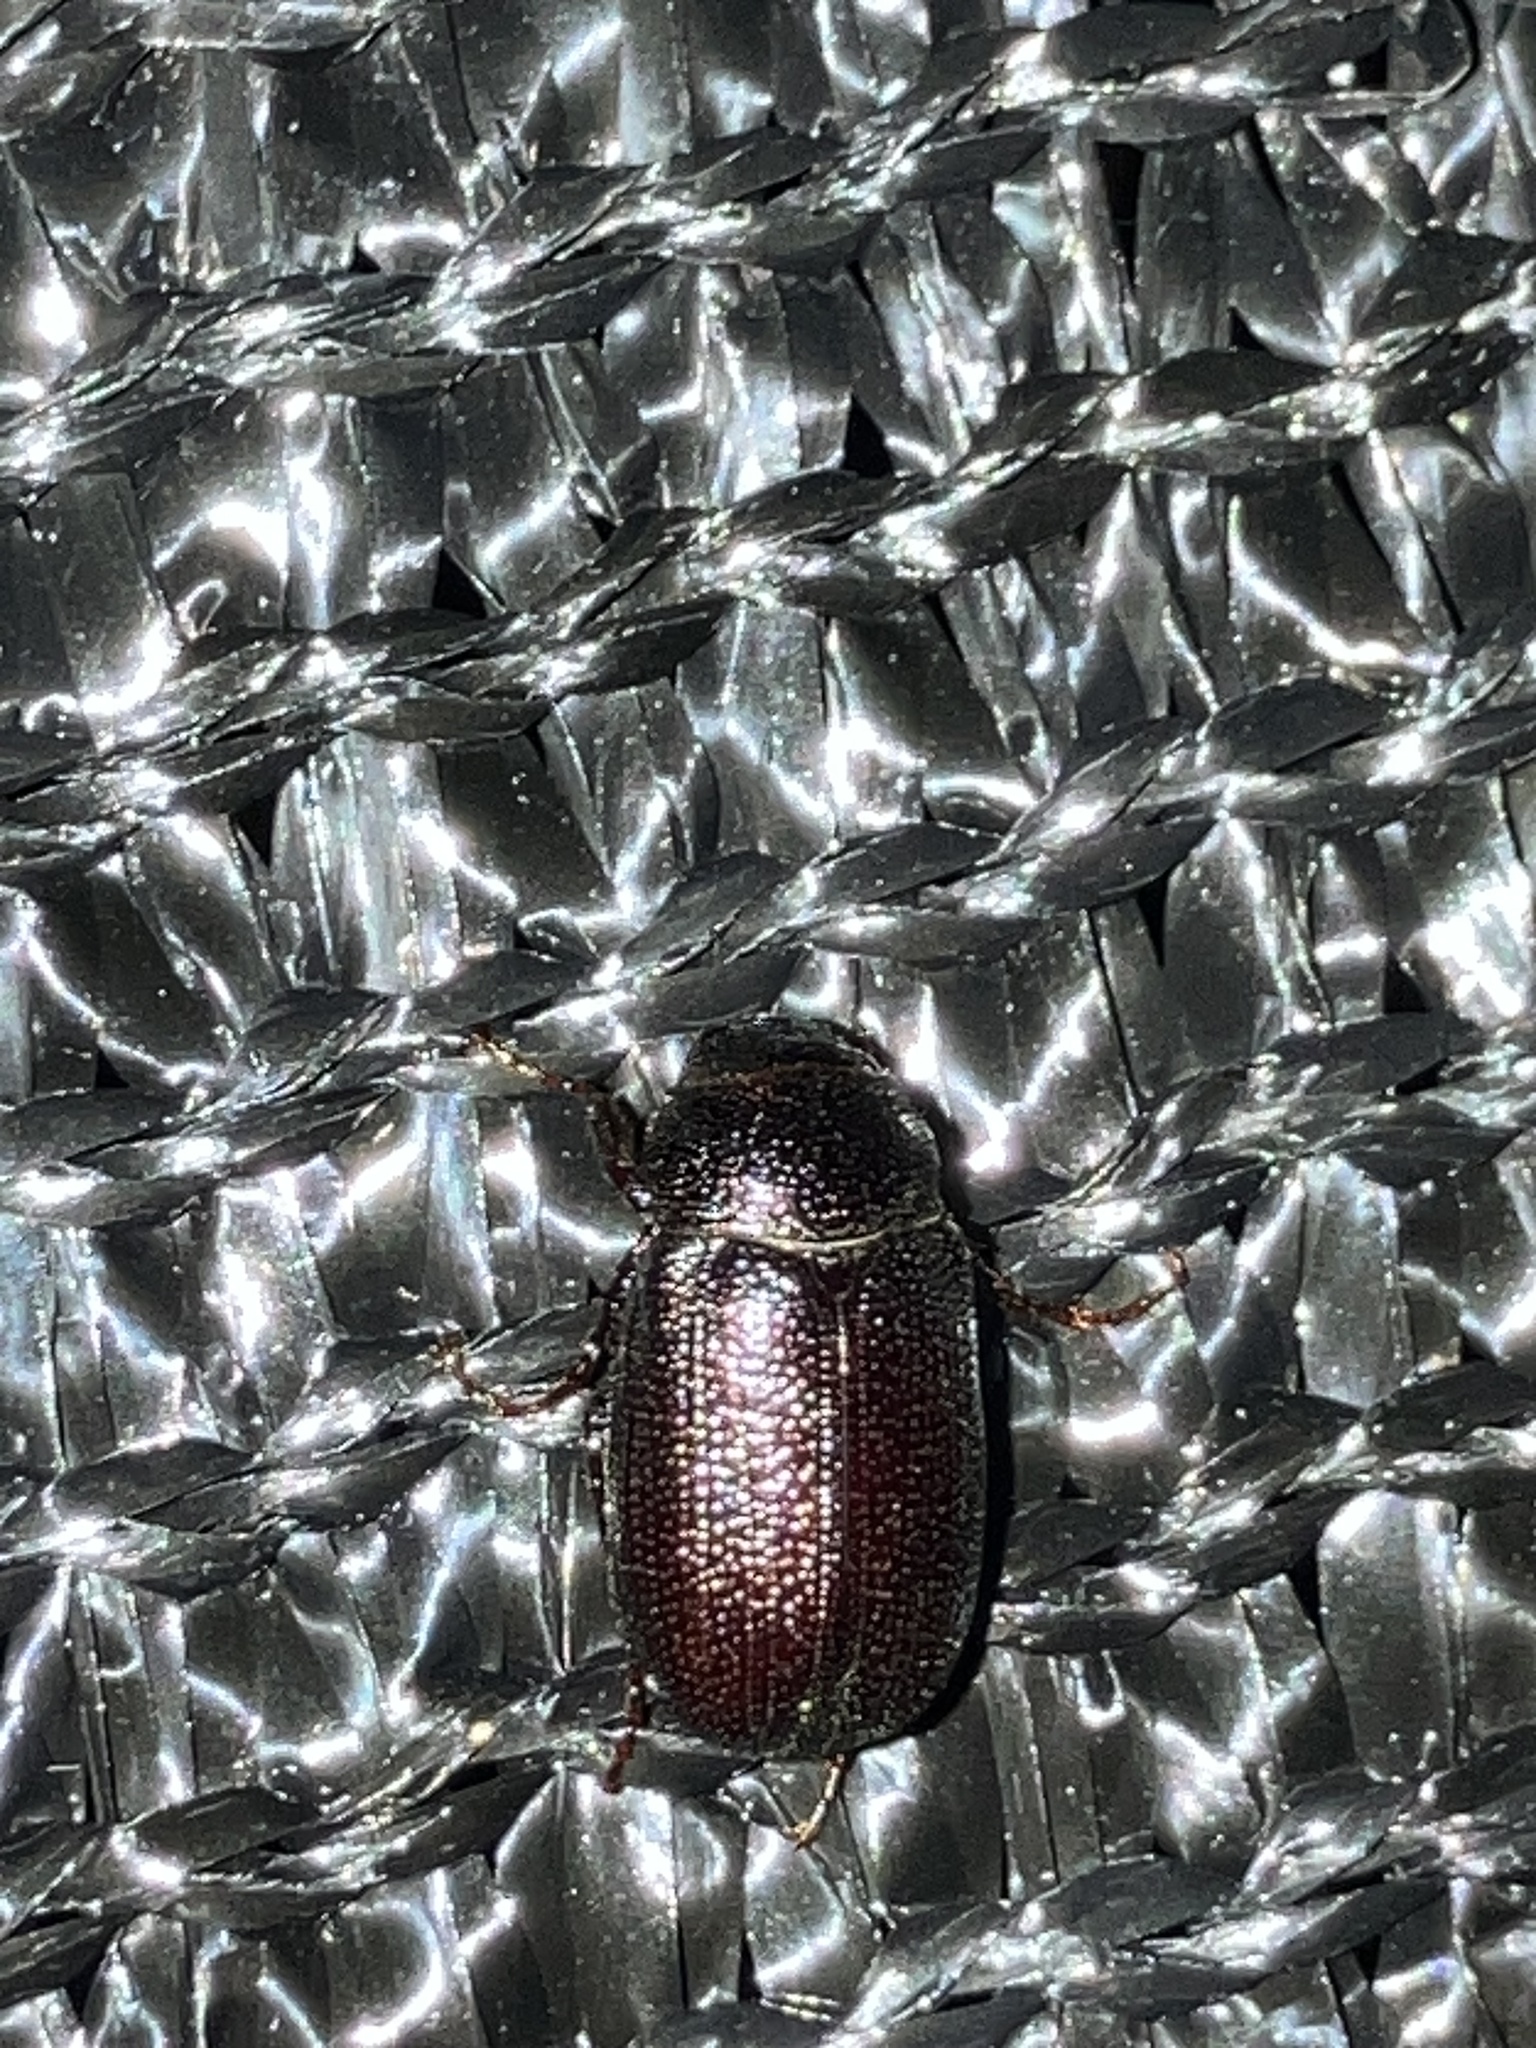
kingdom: Animalia
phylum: Arthropoda
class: Insecta
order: Coleoptera
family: Scarabaeidae
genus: Diplotaxis
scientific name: Diplotaxis
